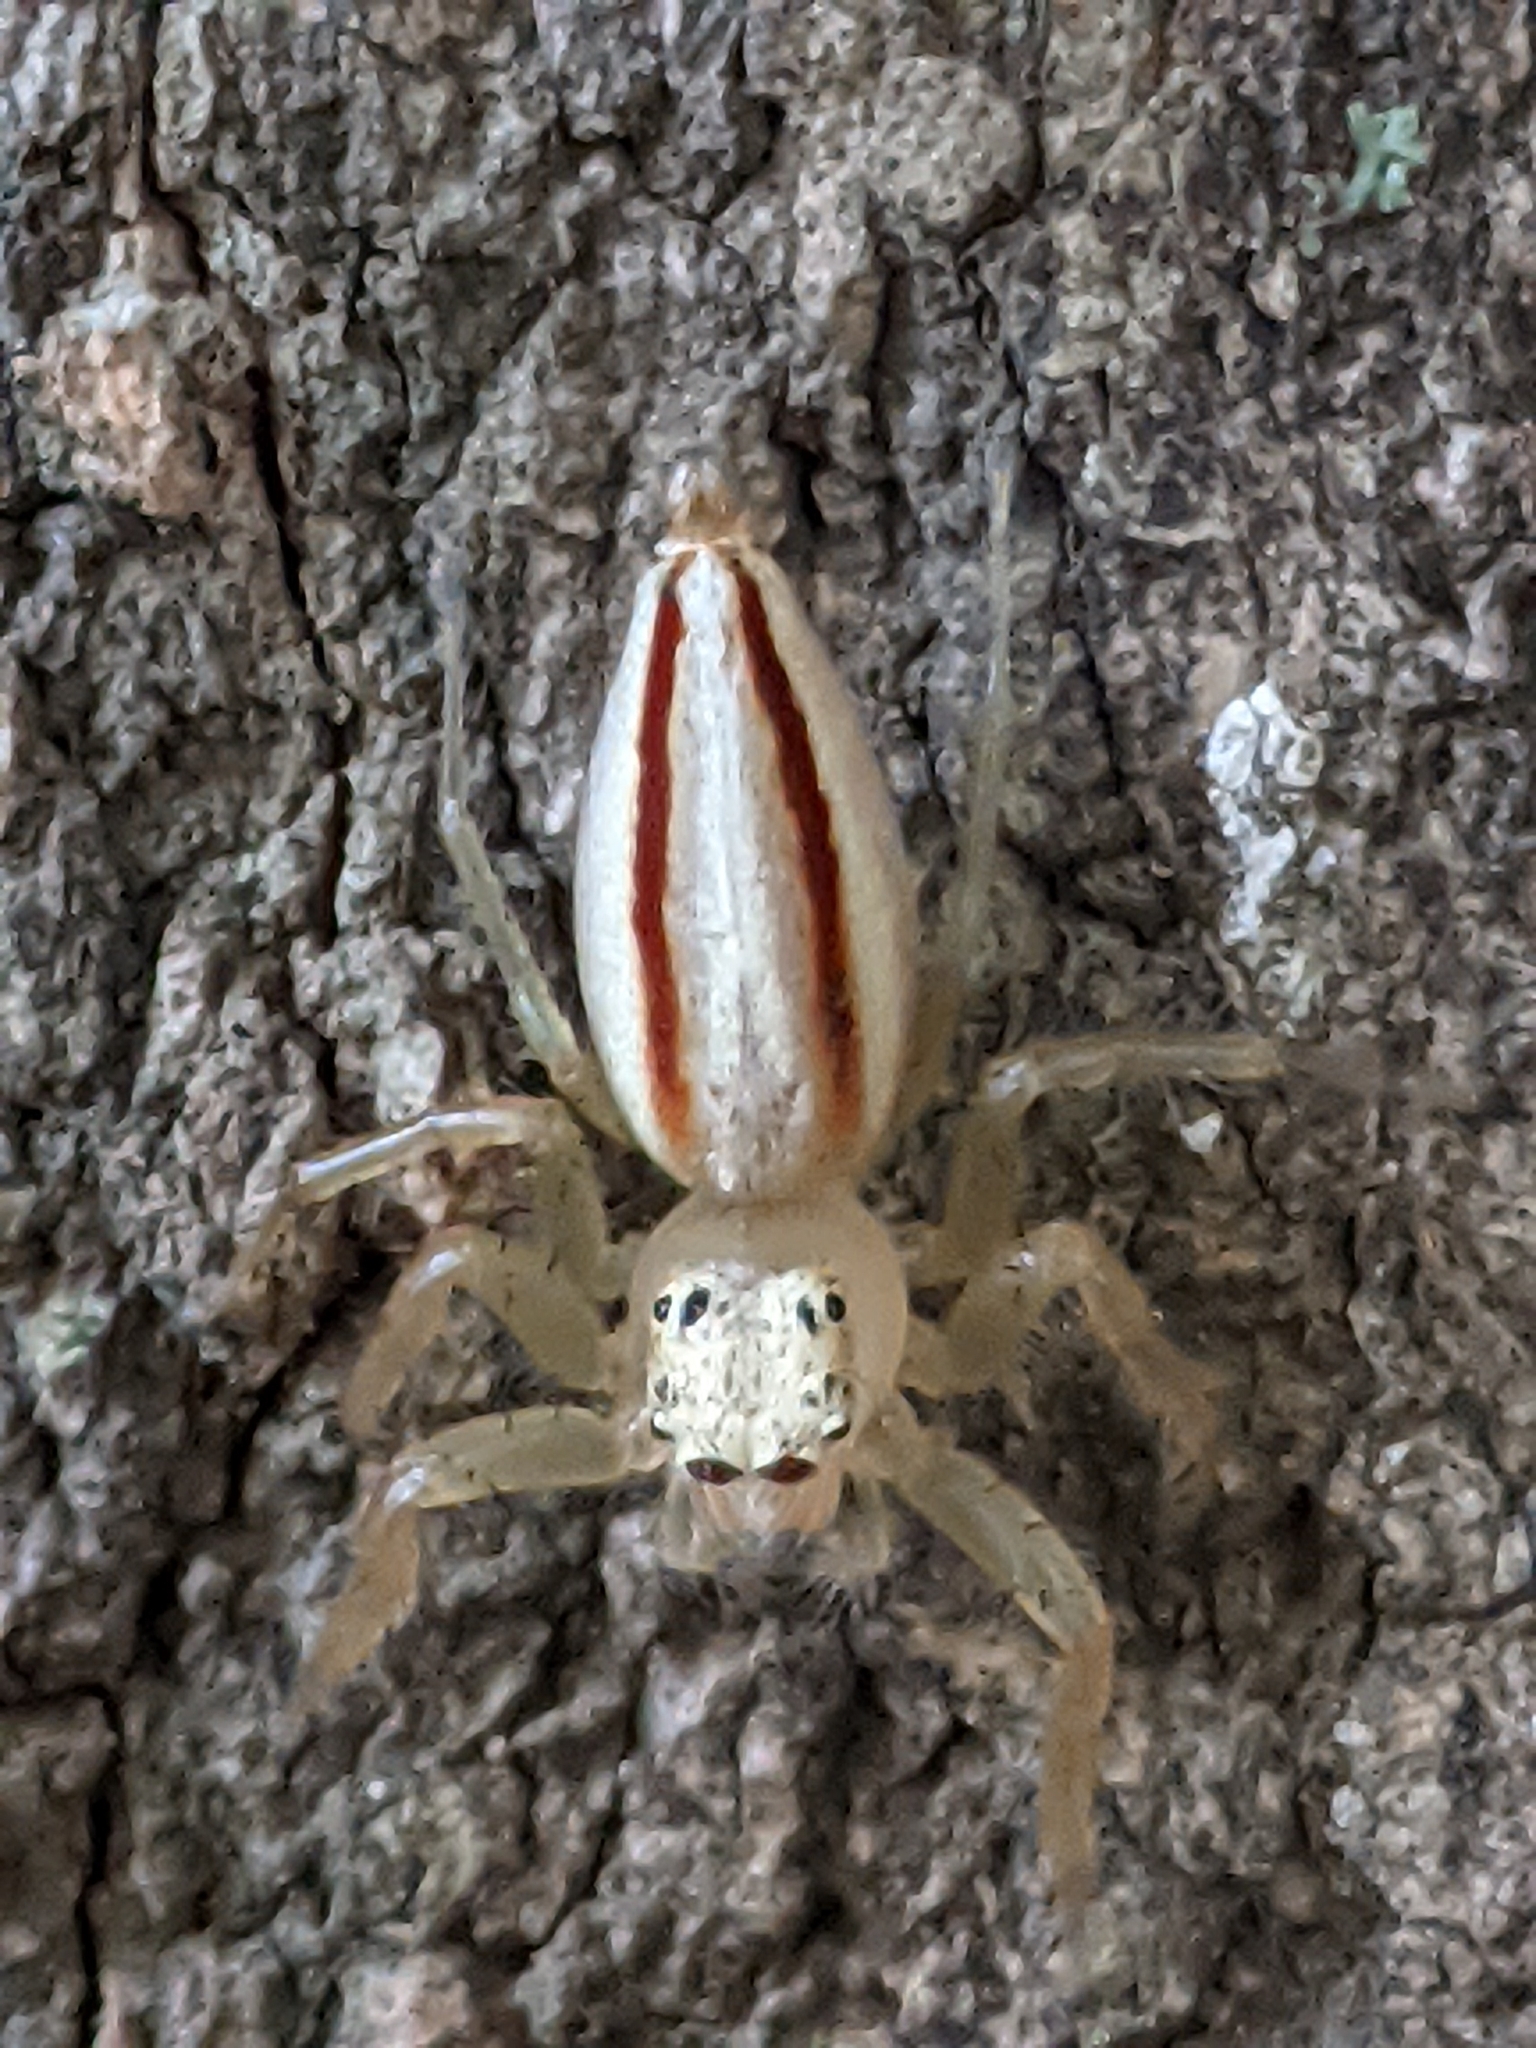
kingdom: Animalia
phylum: Arthropoda
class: Arachnida
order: Araneae
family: Salticidae
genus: Telamonia
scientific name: Telamonia dimidiata
